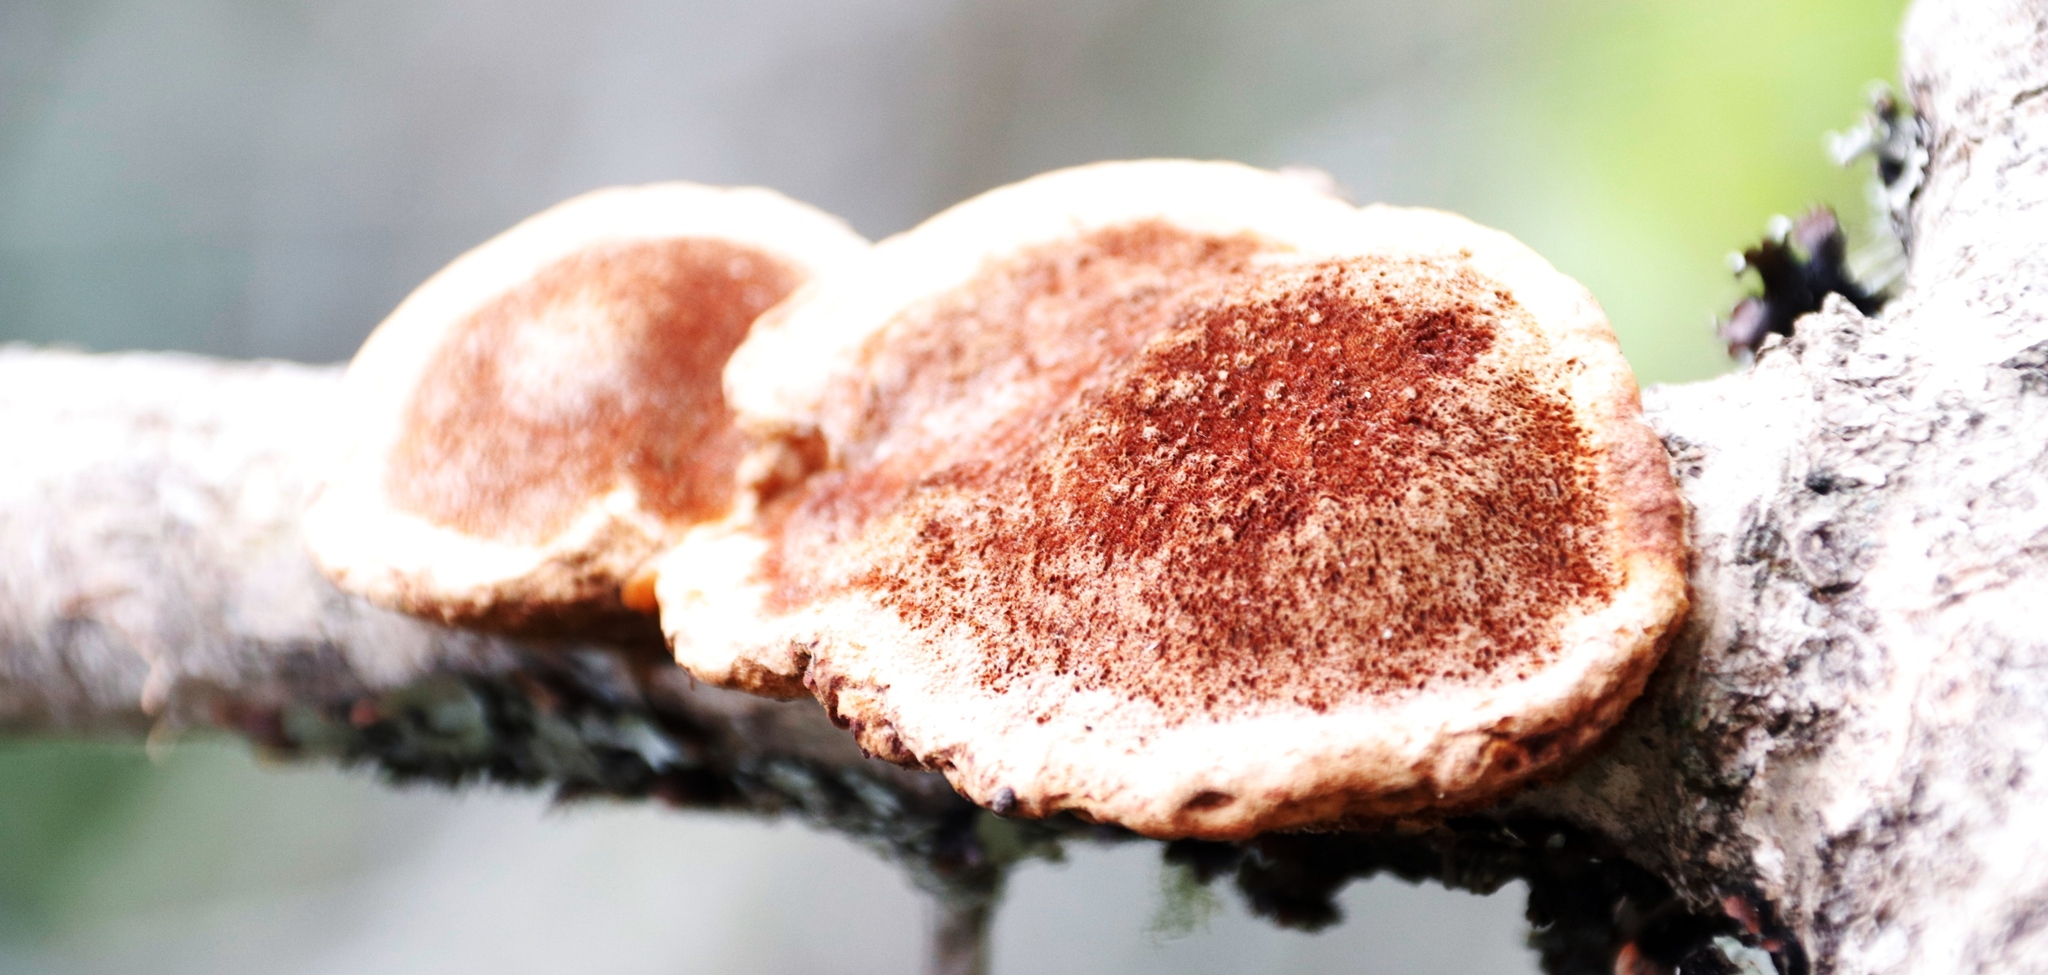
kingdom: Fungi
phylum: Basidiomycota
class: Agaricomycetes
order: Hymenochaetales
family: Hymenochaetaceae
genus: Phellinus
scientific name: Phellinus gilvus
